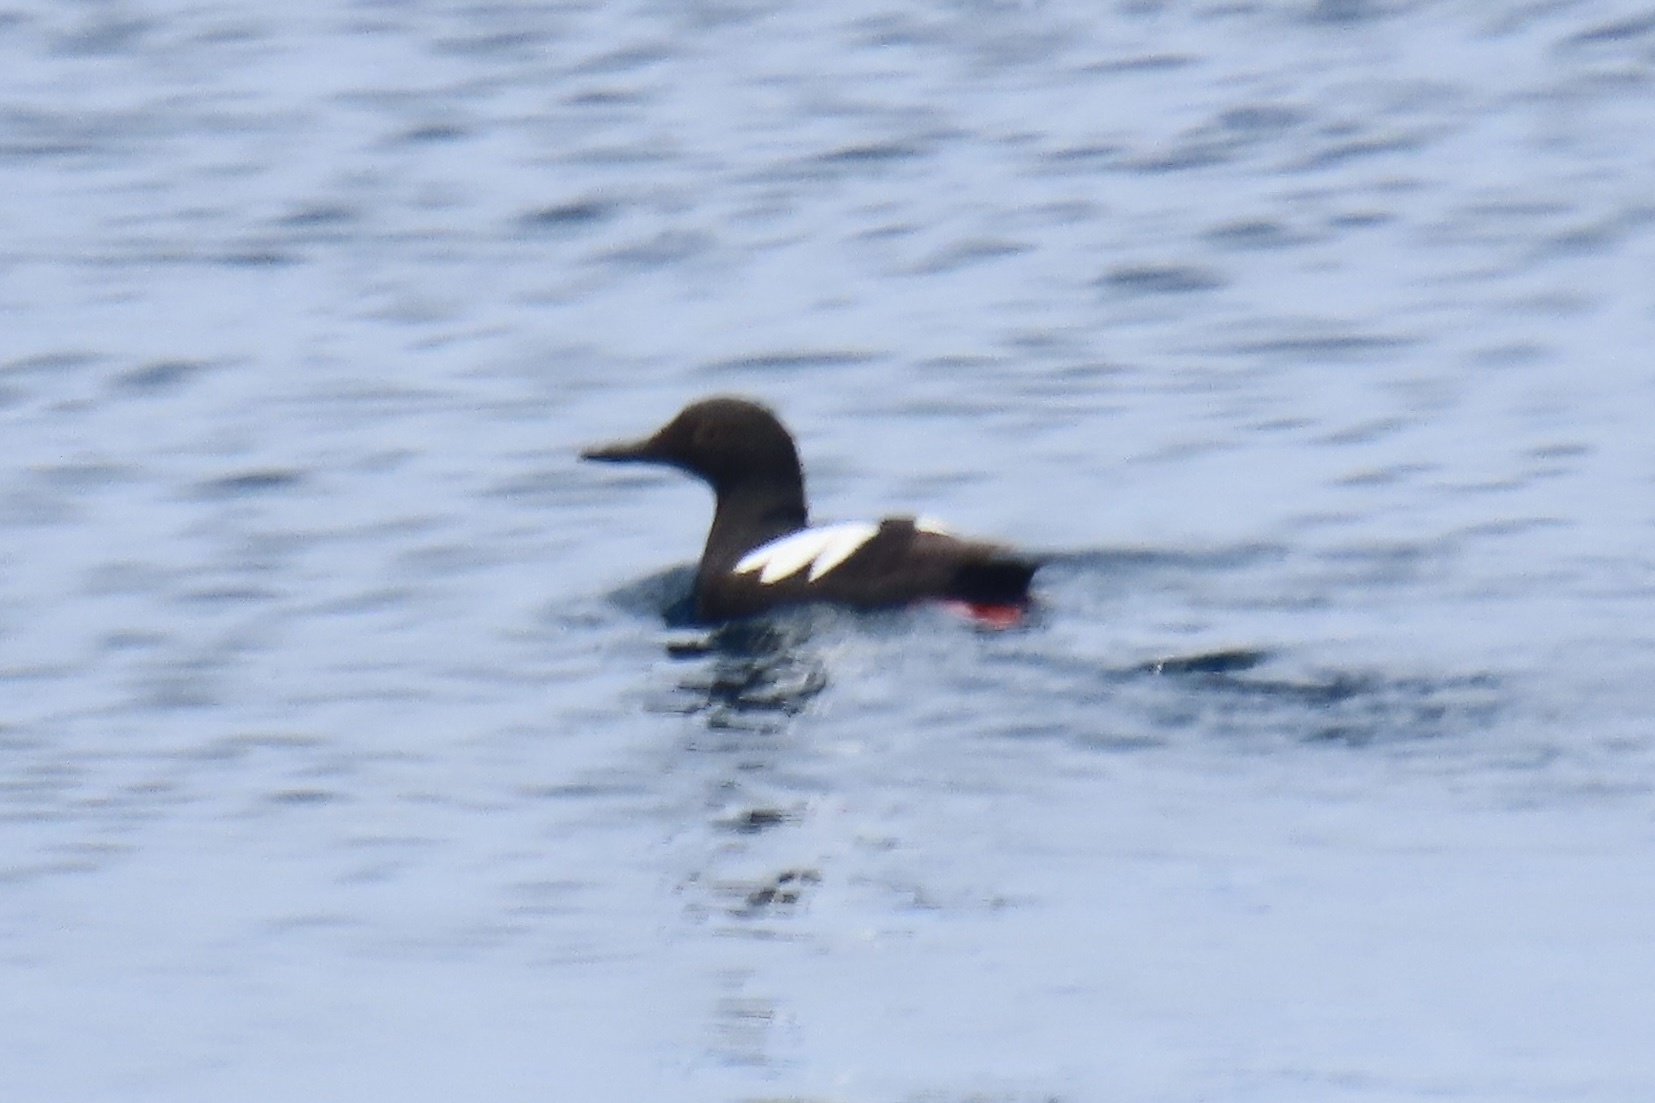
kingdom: Animalia
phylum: Chordata
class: Aves
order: Charadriiformes
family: Alcidae
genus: Cepphus
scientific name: Cepphus columba
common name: Pigeon guillemot
